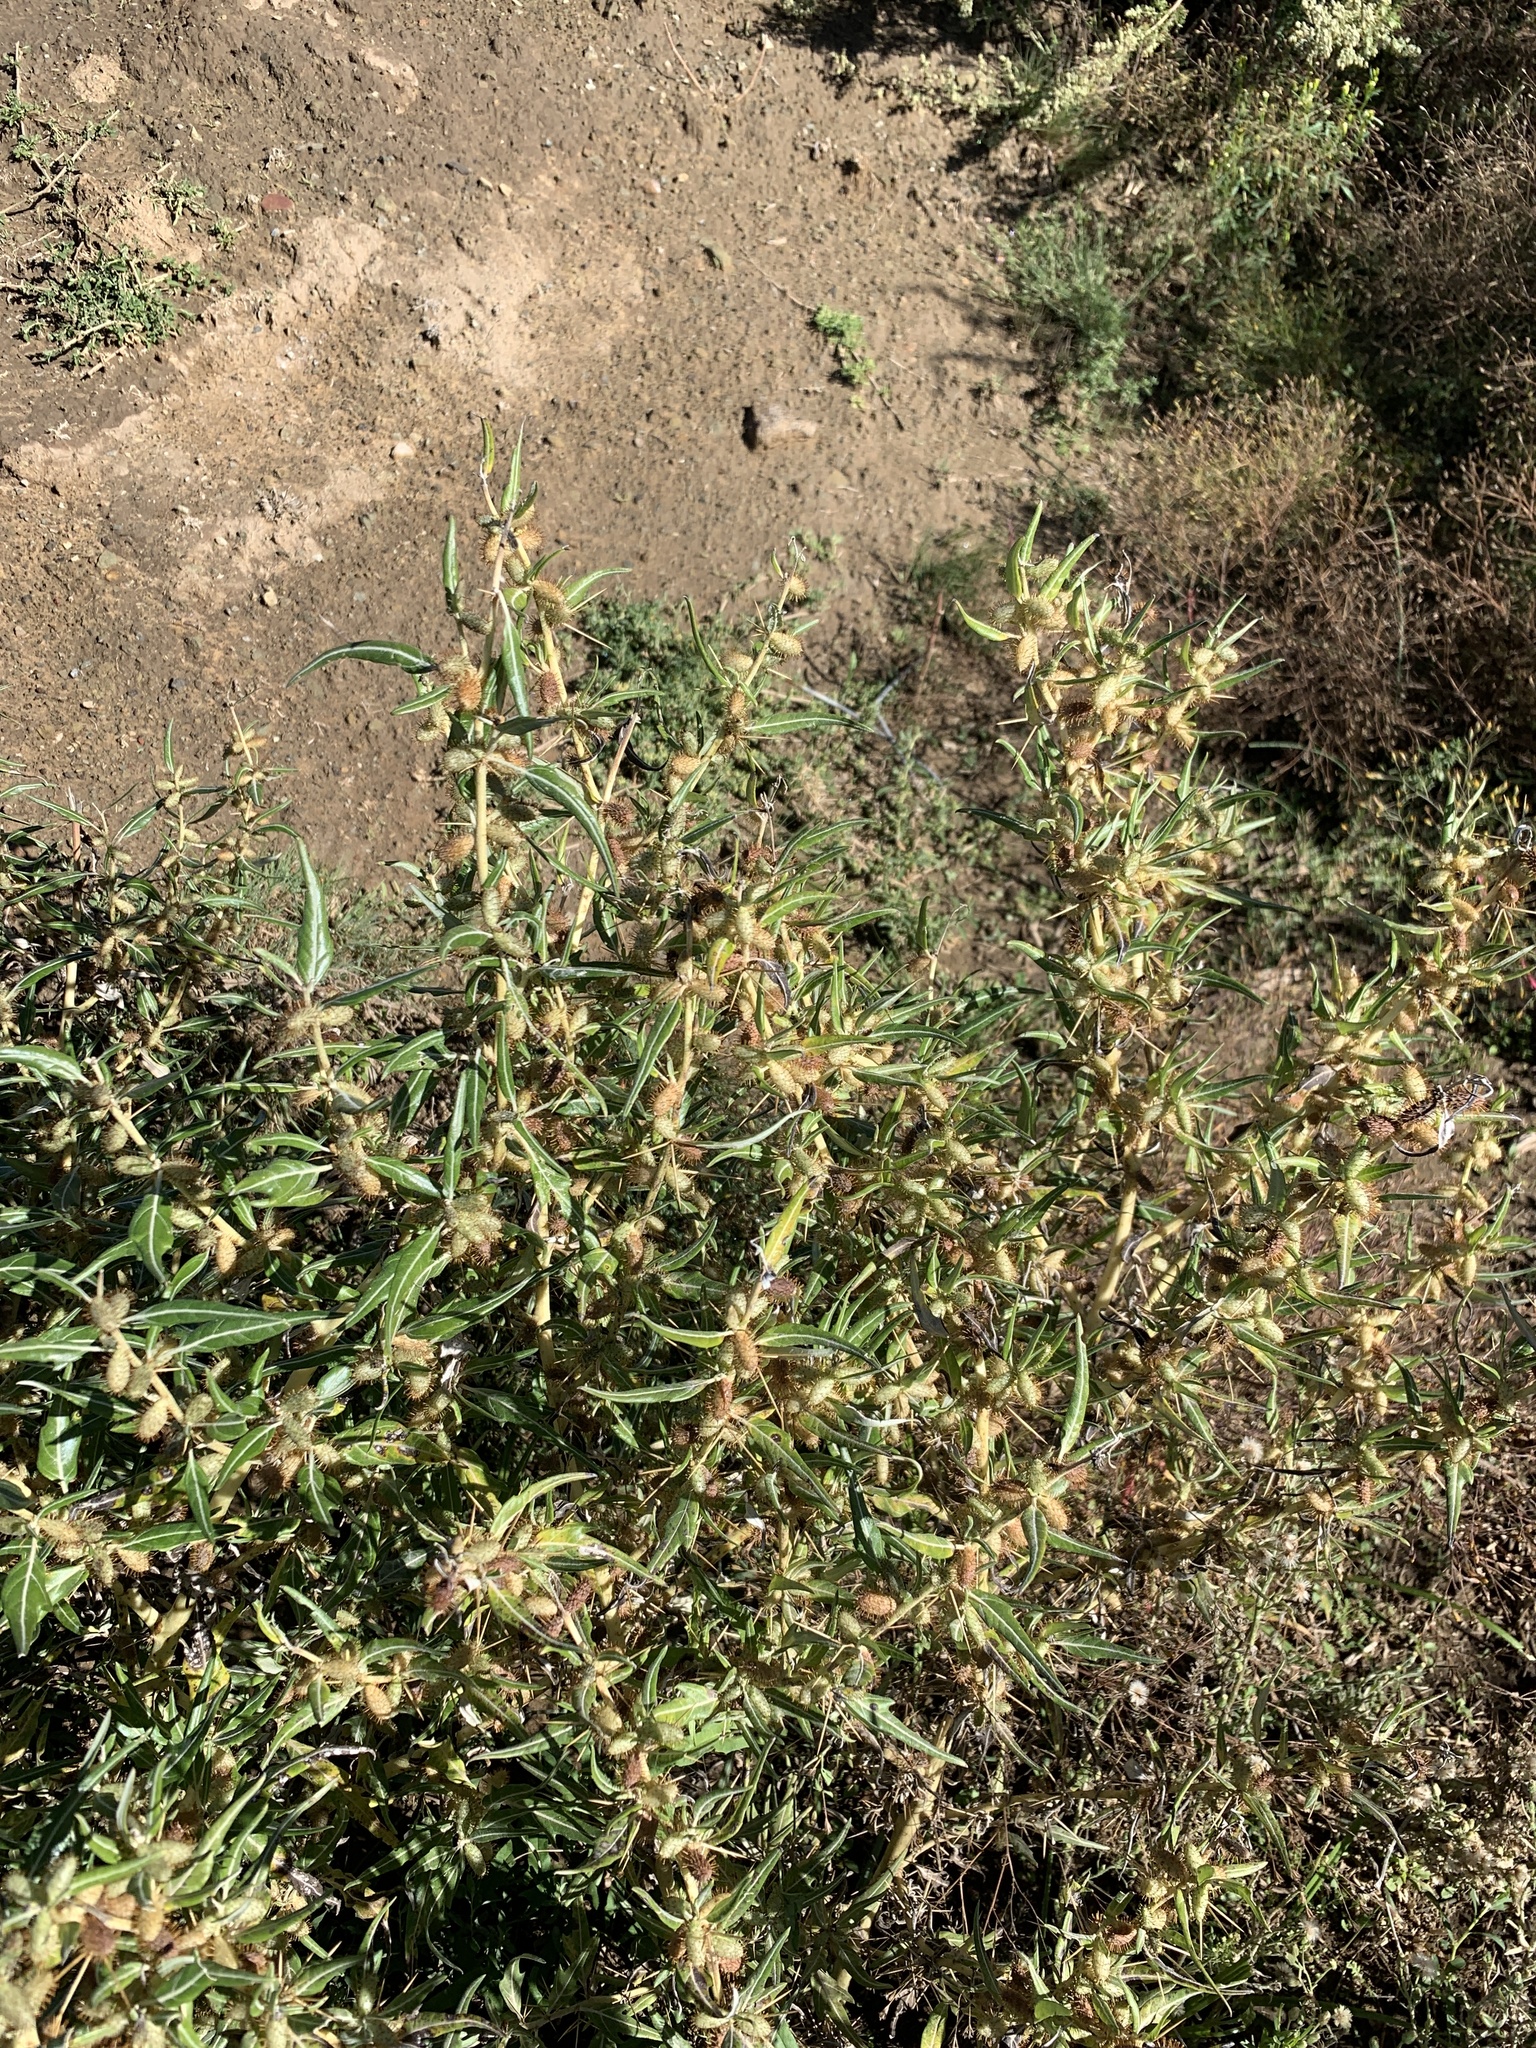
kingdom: Plantae
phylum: Tracheophyta
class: Magnoliopsida
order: Asterales
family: Asteraceae
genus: Xanthium
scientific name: Xanthium spinosum
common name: Spiny cocklebur
